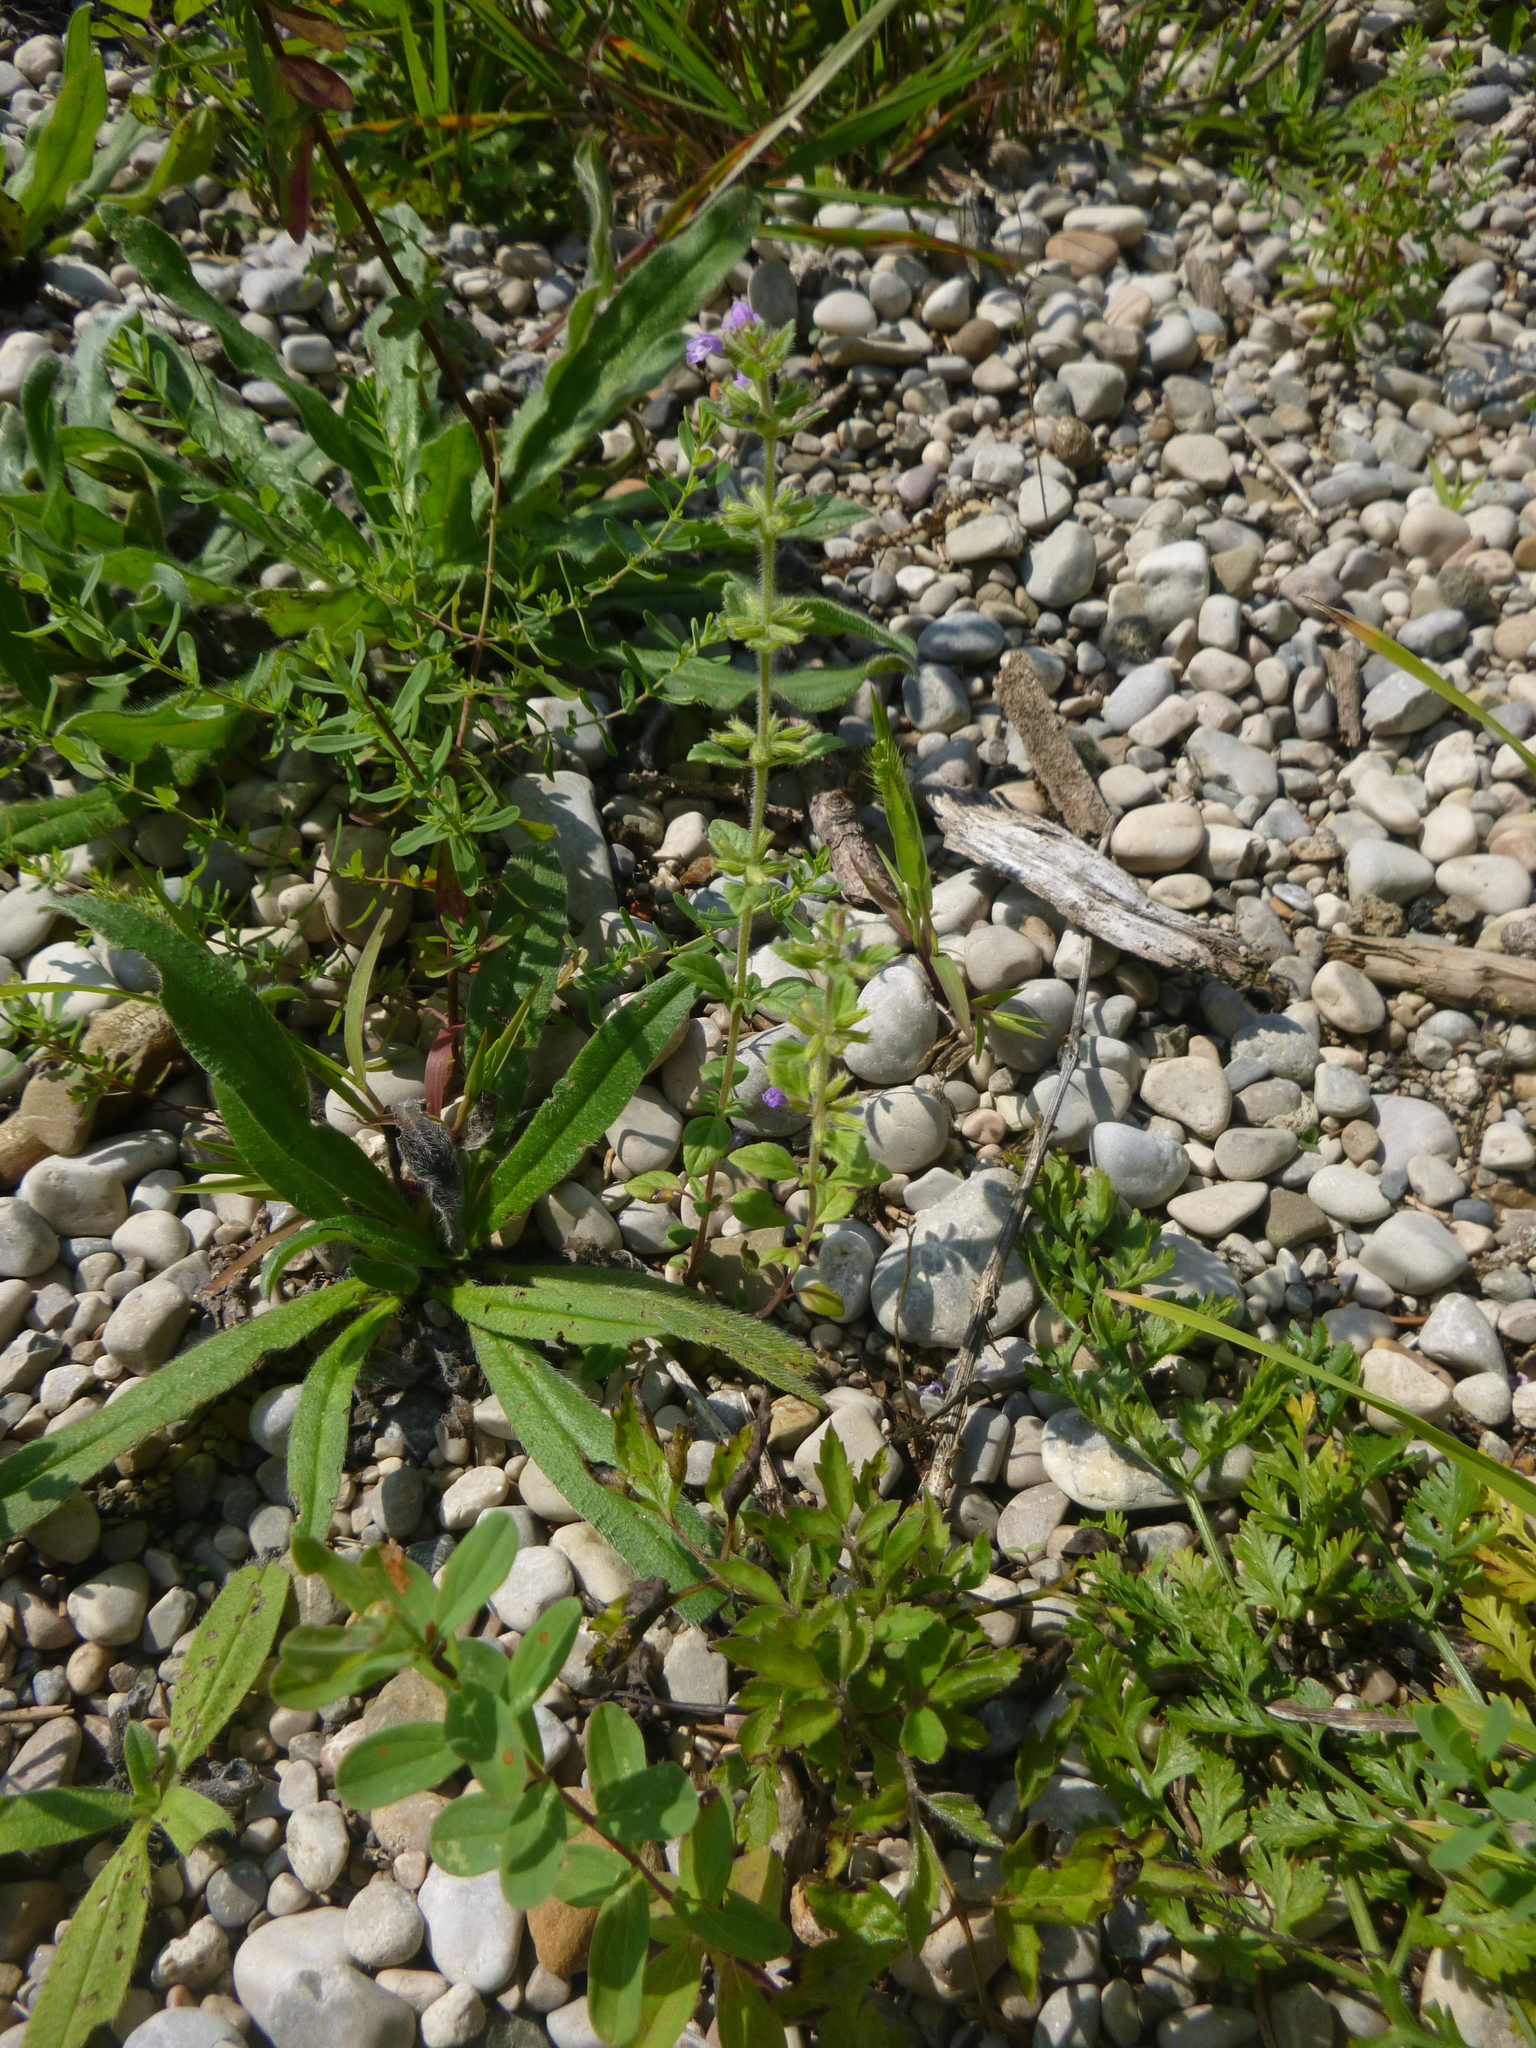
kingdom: Plantae
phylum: Tracheophyta
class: Magnoliopsida
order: Lamiales
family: Lamiaceae
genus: Clinopodium
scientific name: Clinopodium acinos
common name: Basil thyme
